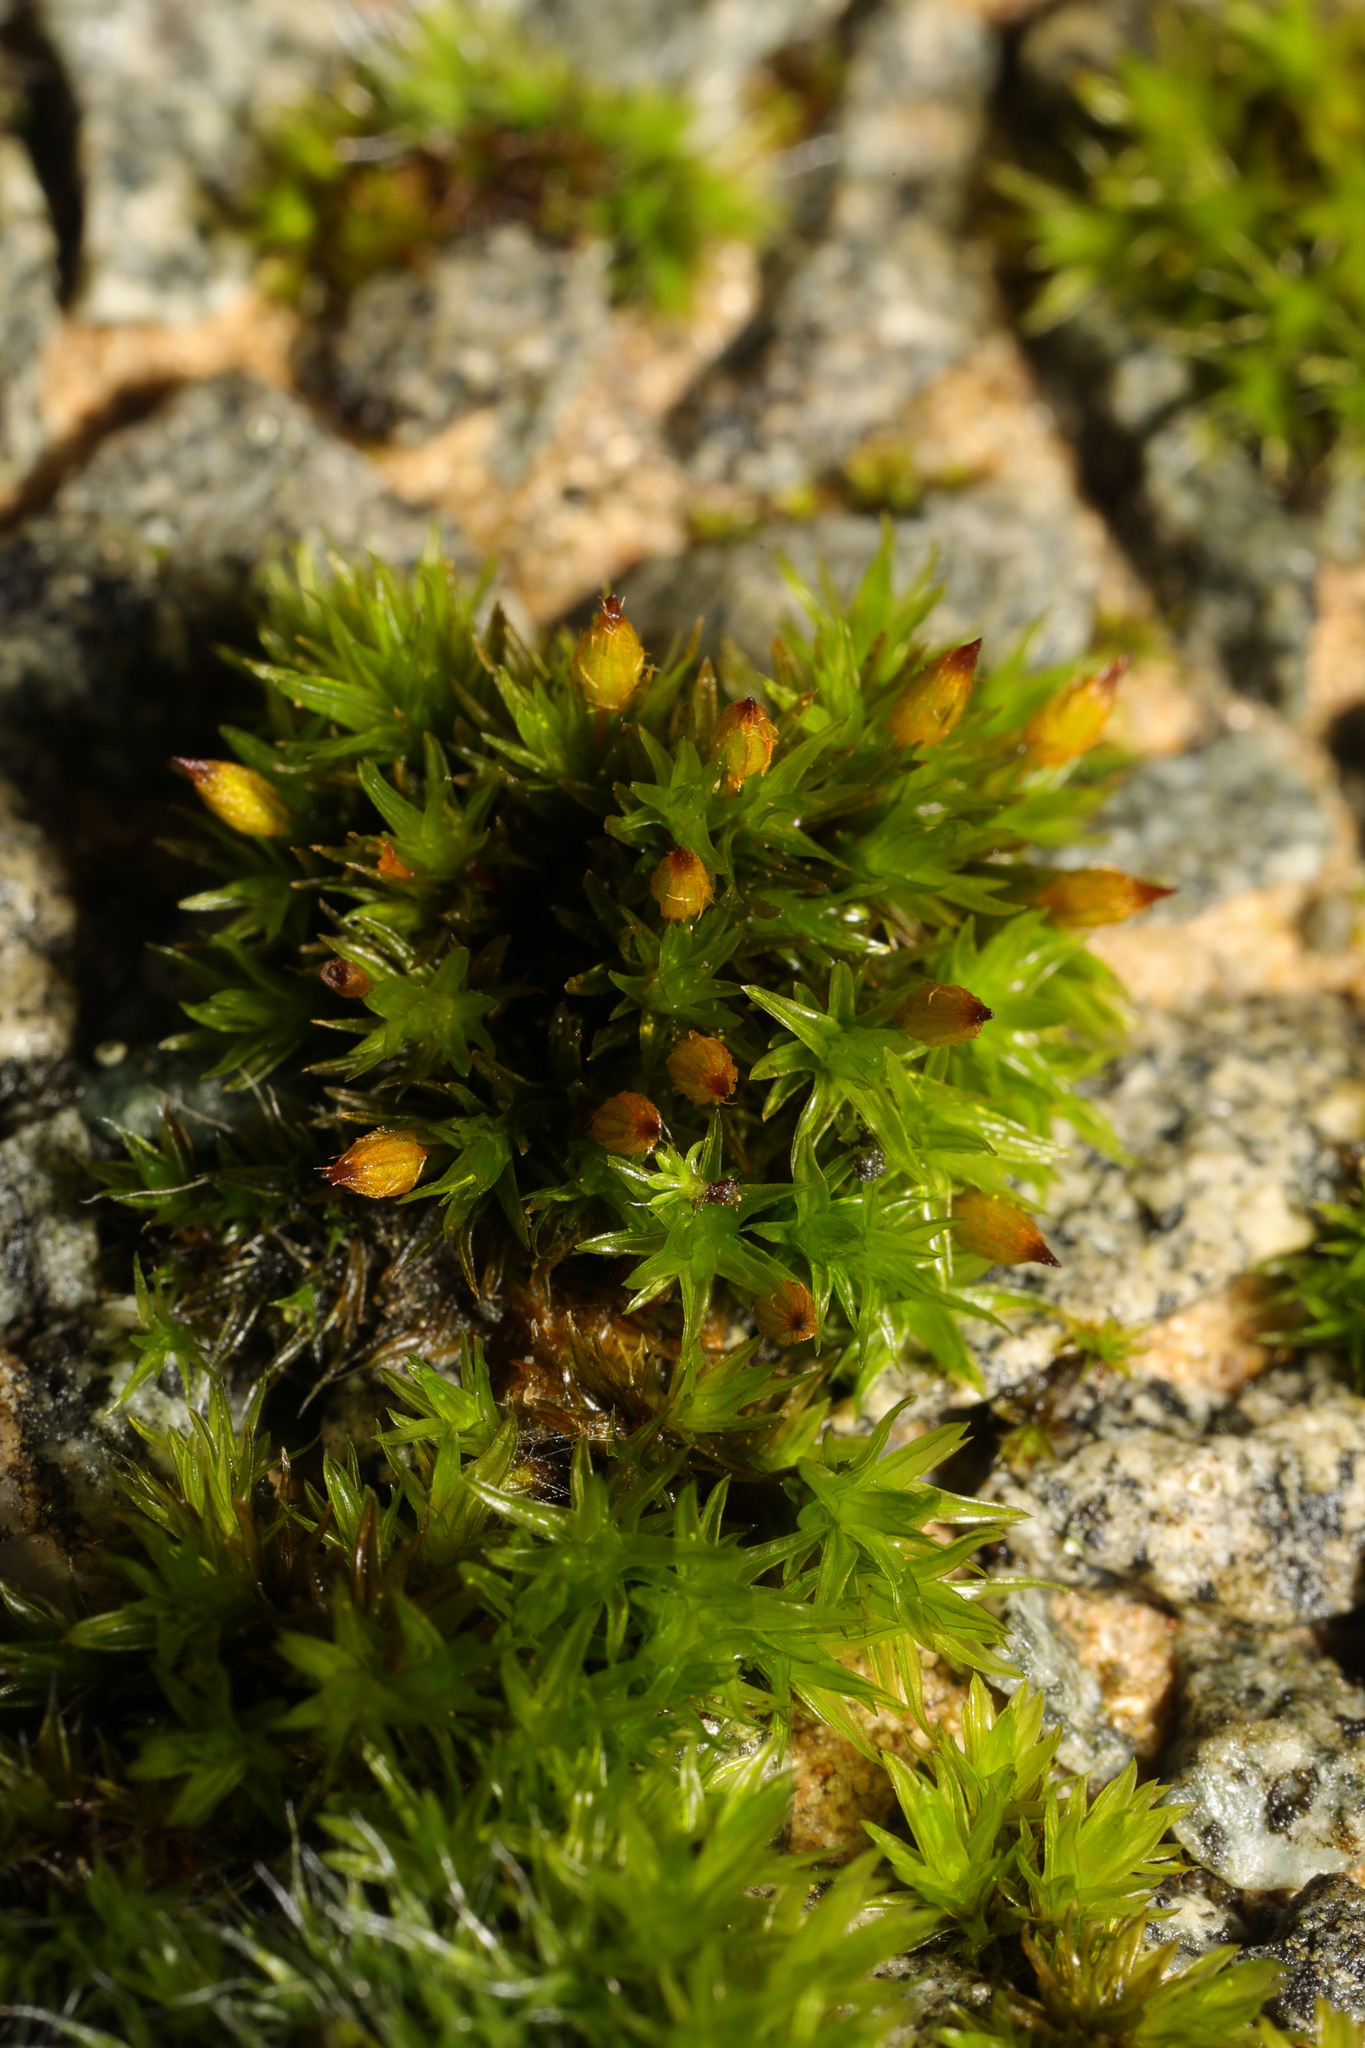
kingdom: Plantae
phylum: Bryophyta
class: Bryopsida
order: Orthotrichales
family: Orthotrichaceae
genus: Orthotrichum
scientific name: Orthotrichum anomalum
